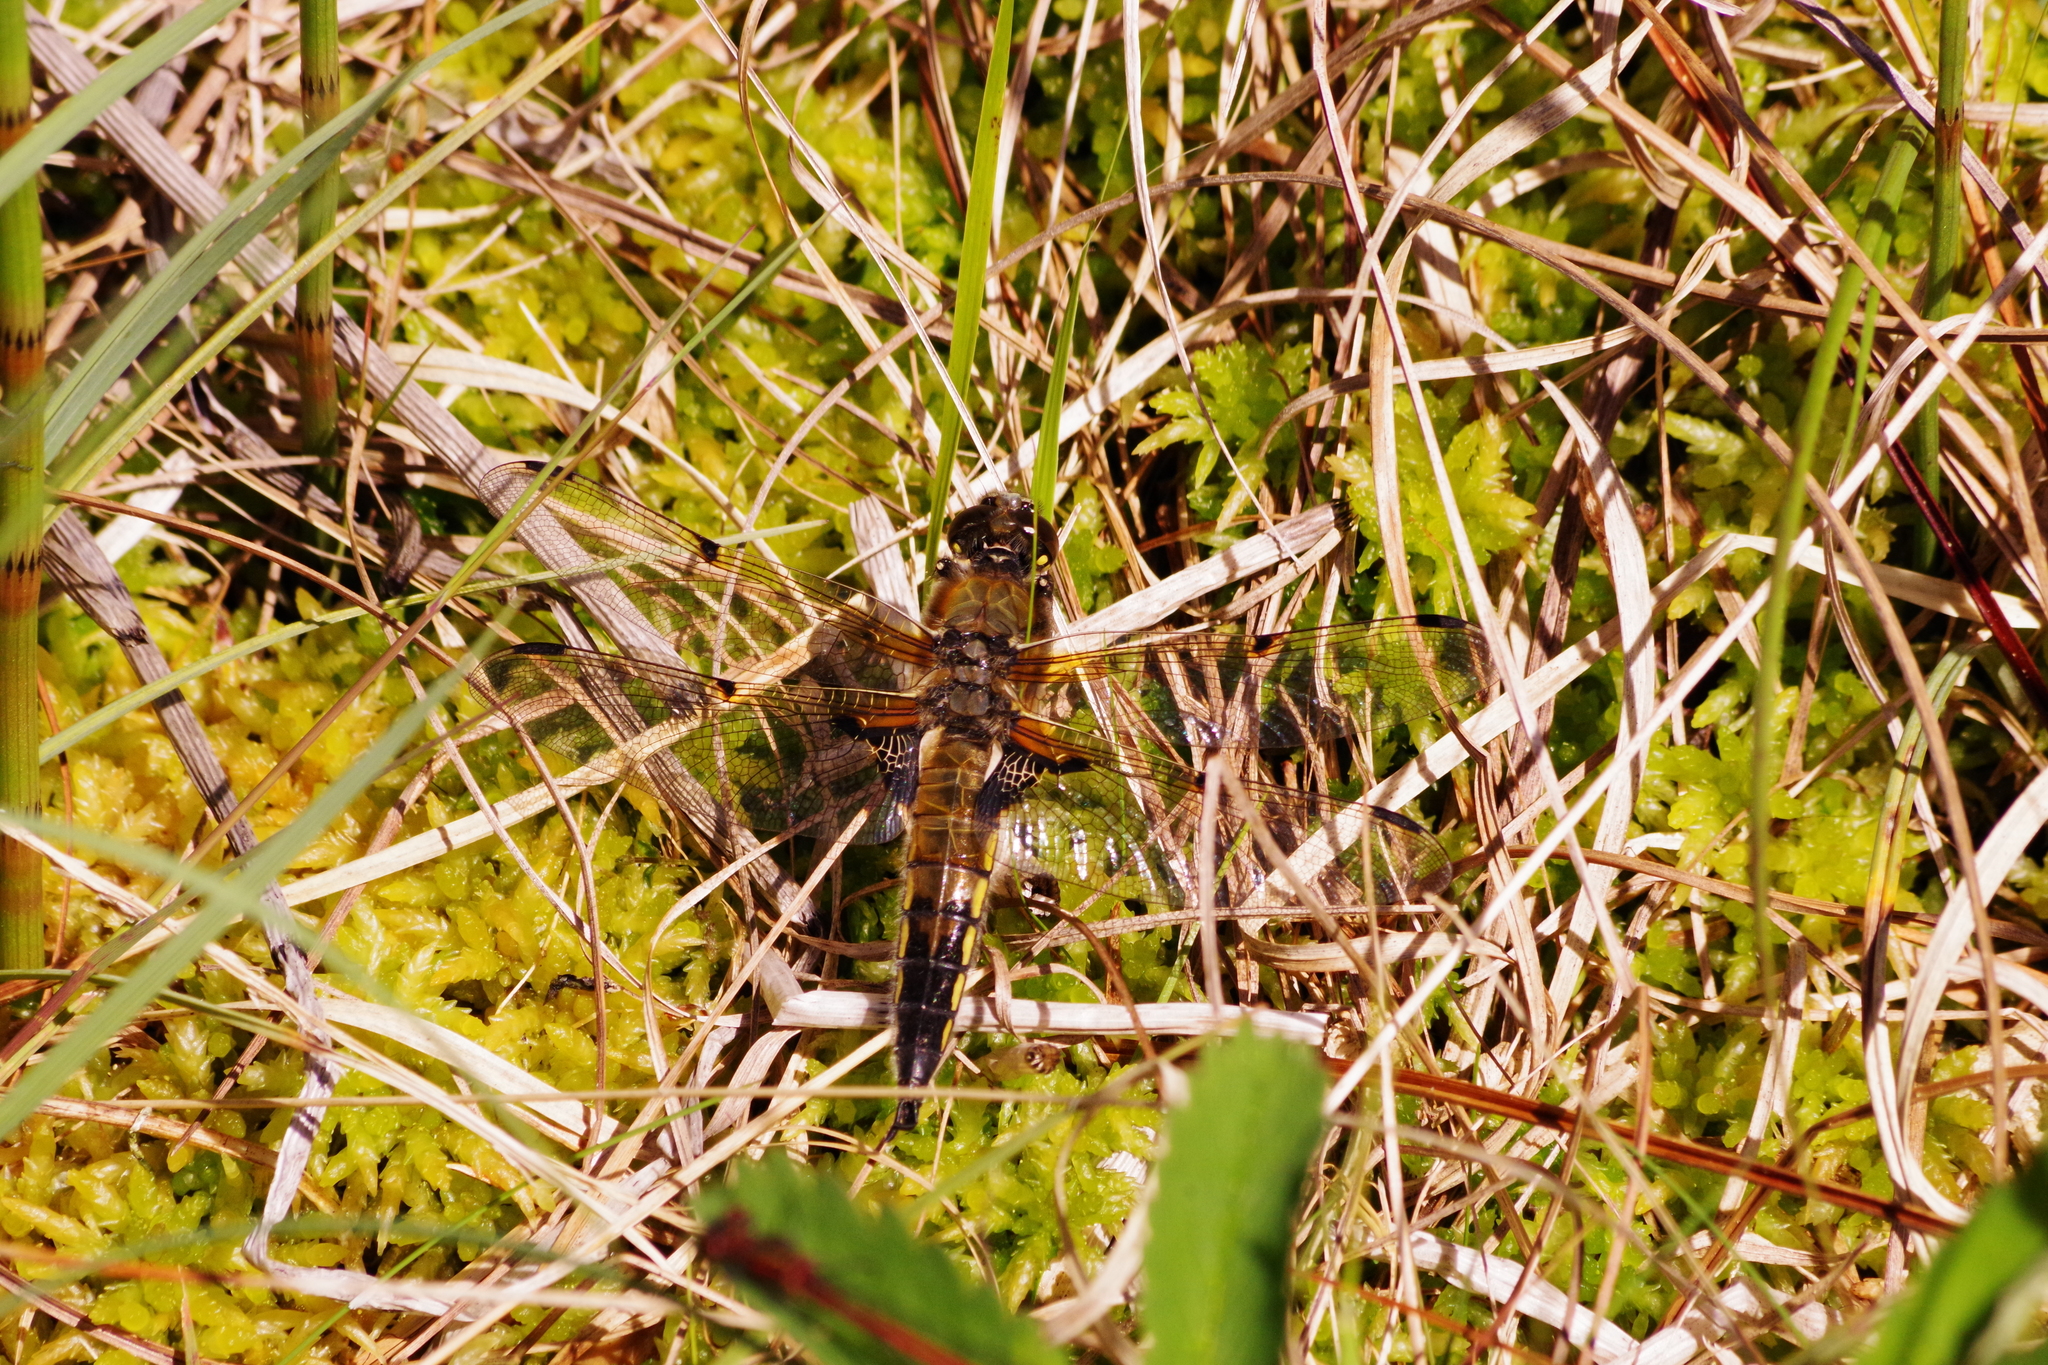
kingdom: Animalia
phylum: Arthropoda
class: Insecta
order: Odonata
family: Libellulidae
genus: Libellula
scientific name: Libellula quadrimaculata
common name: Four-spotted chaser
